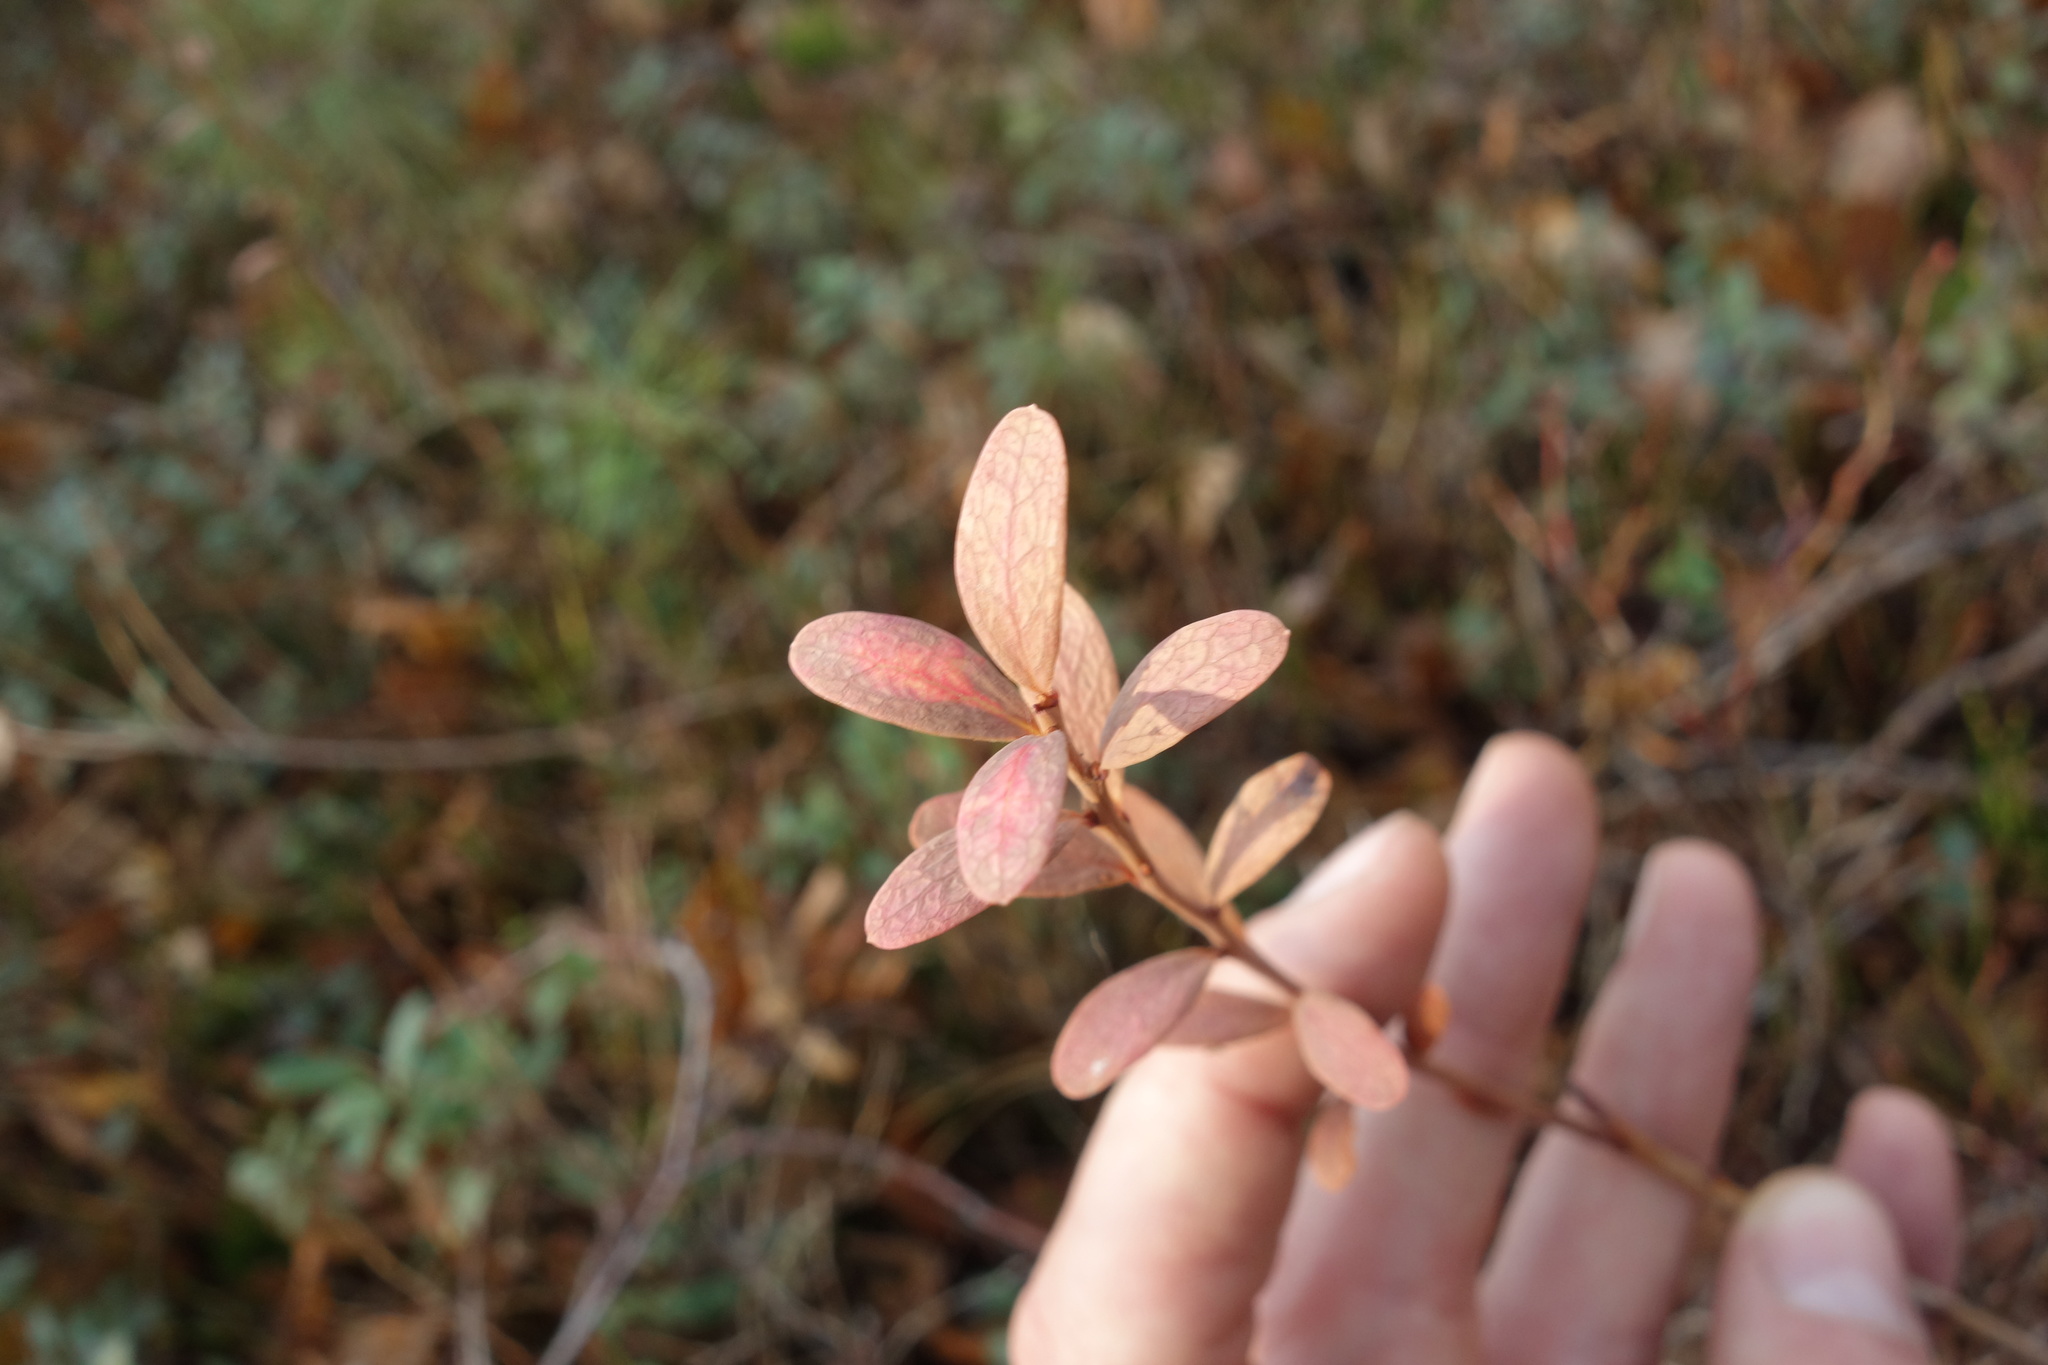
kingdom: Plantae
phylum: Tracheophyta
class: Magnoliopsida
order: Ericales
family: Ericaceae
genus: Vaccinium
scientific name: Vaccinium uliginosum
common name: Bog bilberry
